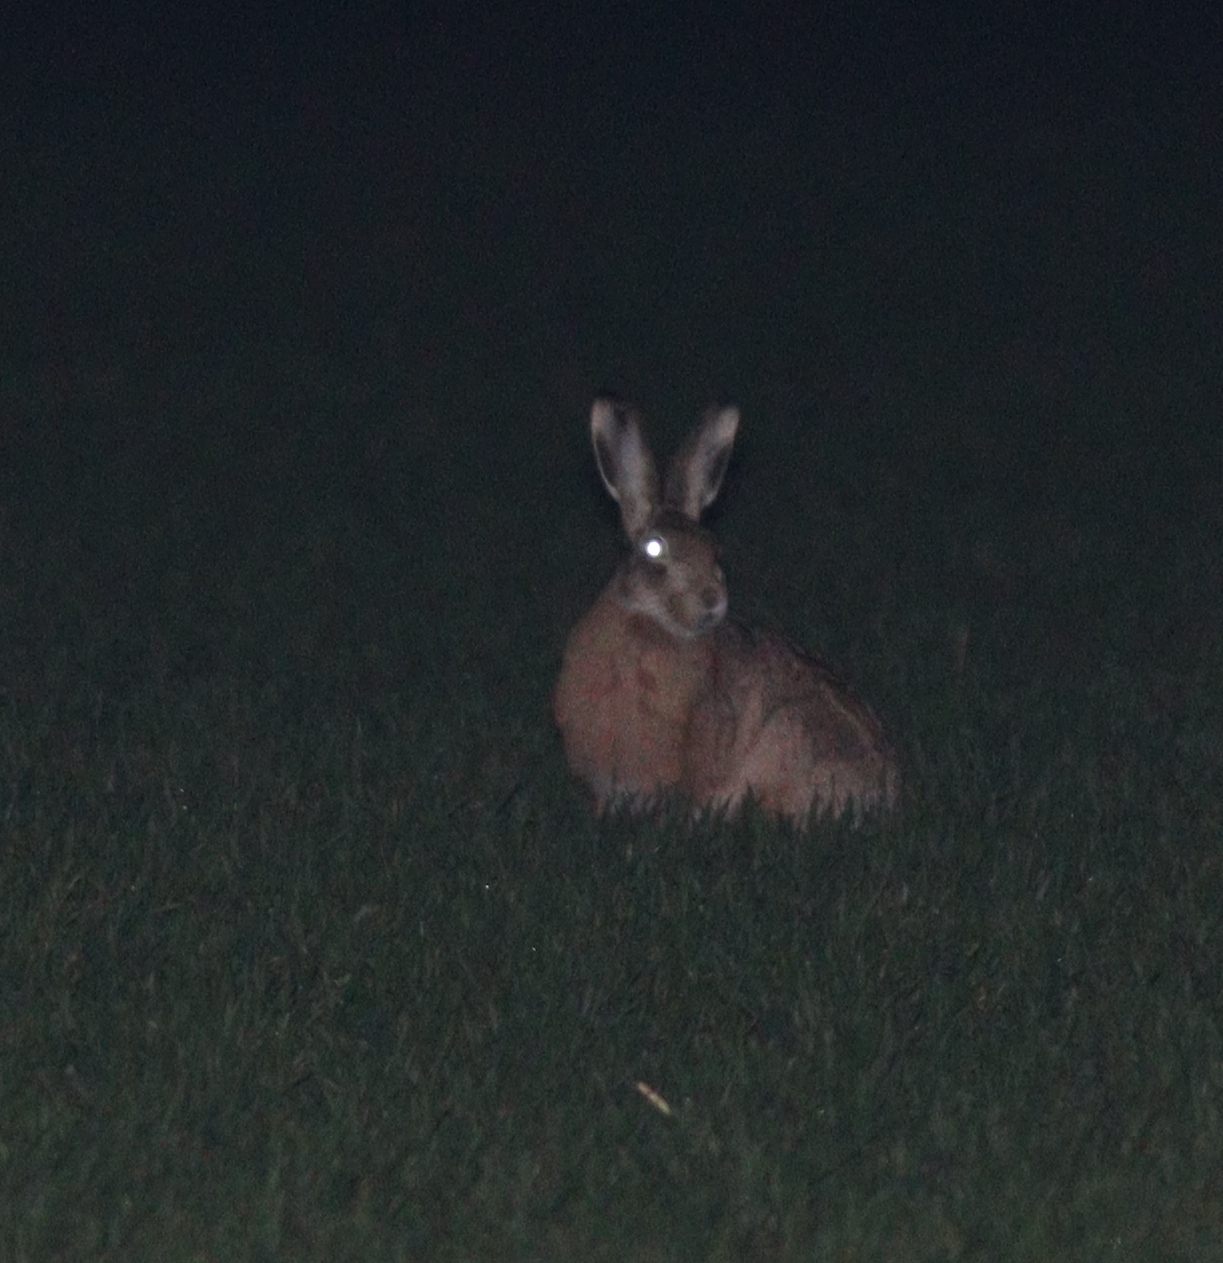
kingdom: Animalia
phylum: Chordata
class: Mammalia
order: Lagomorpha
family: Leporidae
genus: Lepus
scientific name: Lepus europaeus
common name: European hare
